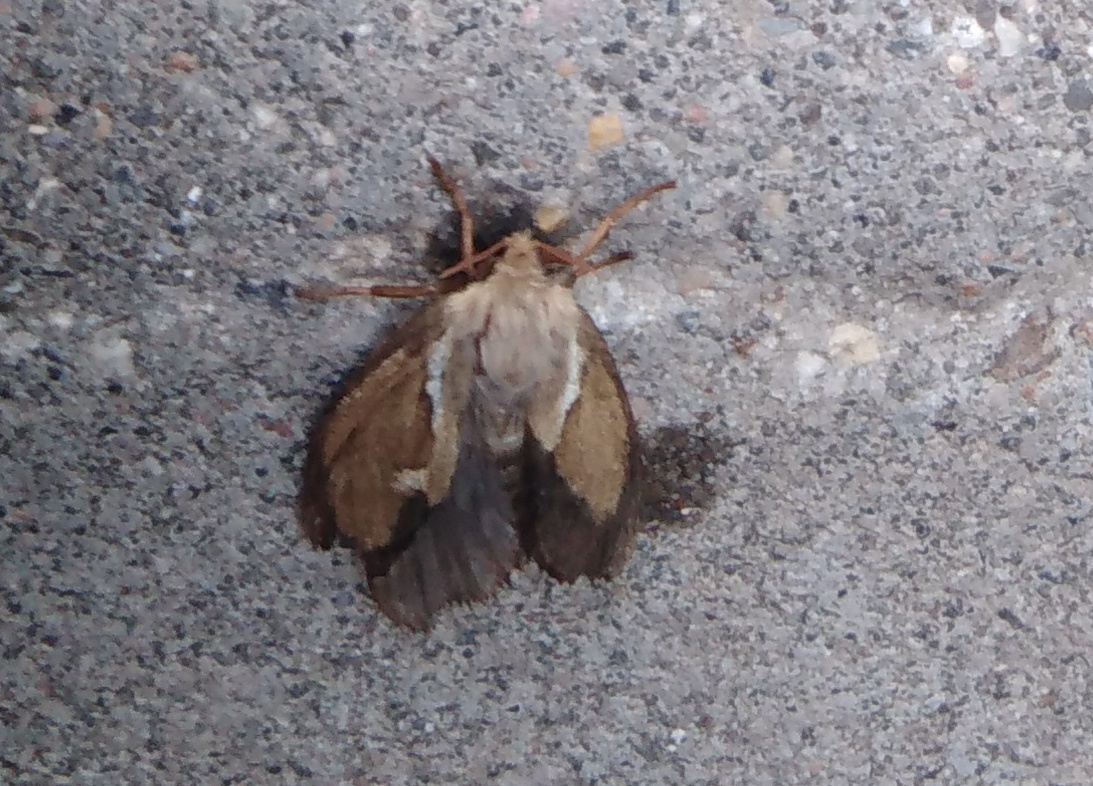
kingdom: Animalia
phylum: Arthropoda
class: Insecta
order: Lepidoptera
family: Hepialidae
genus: Korscheltellus
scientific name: Korscheltellus lupulina
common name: Common swift
